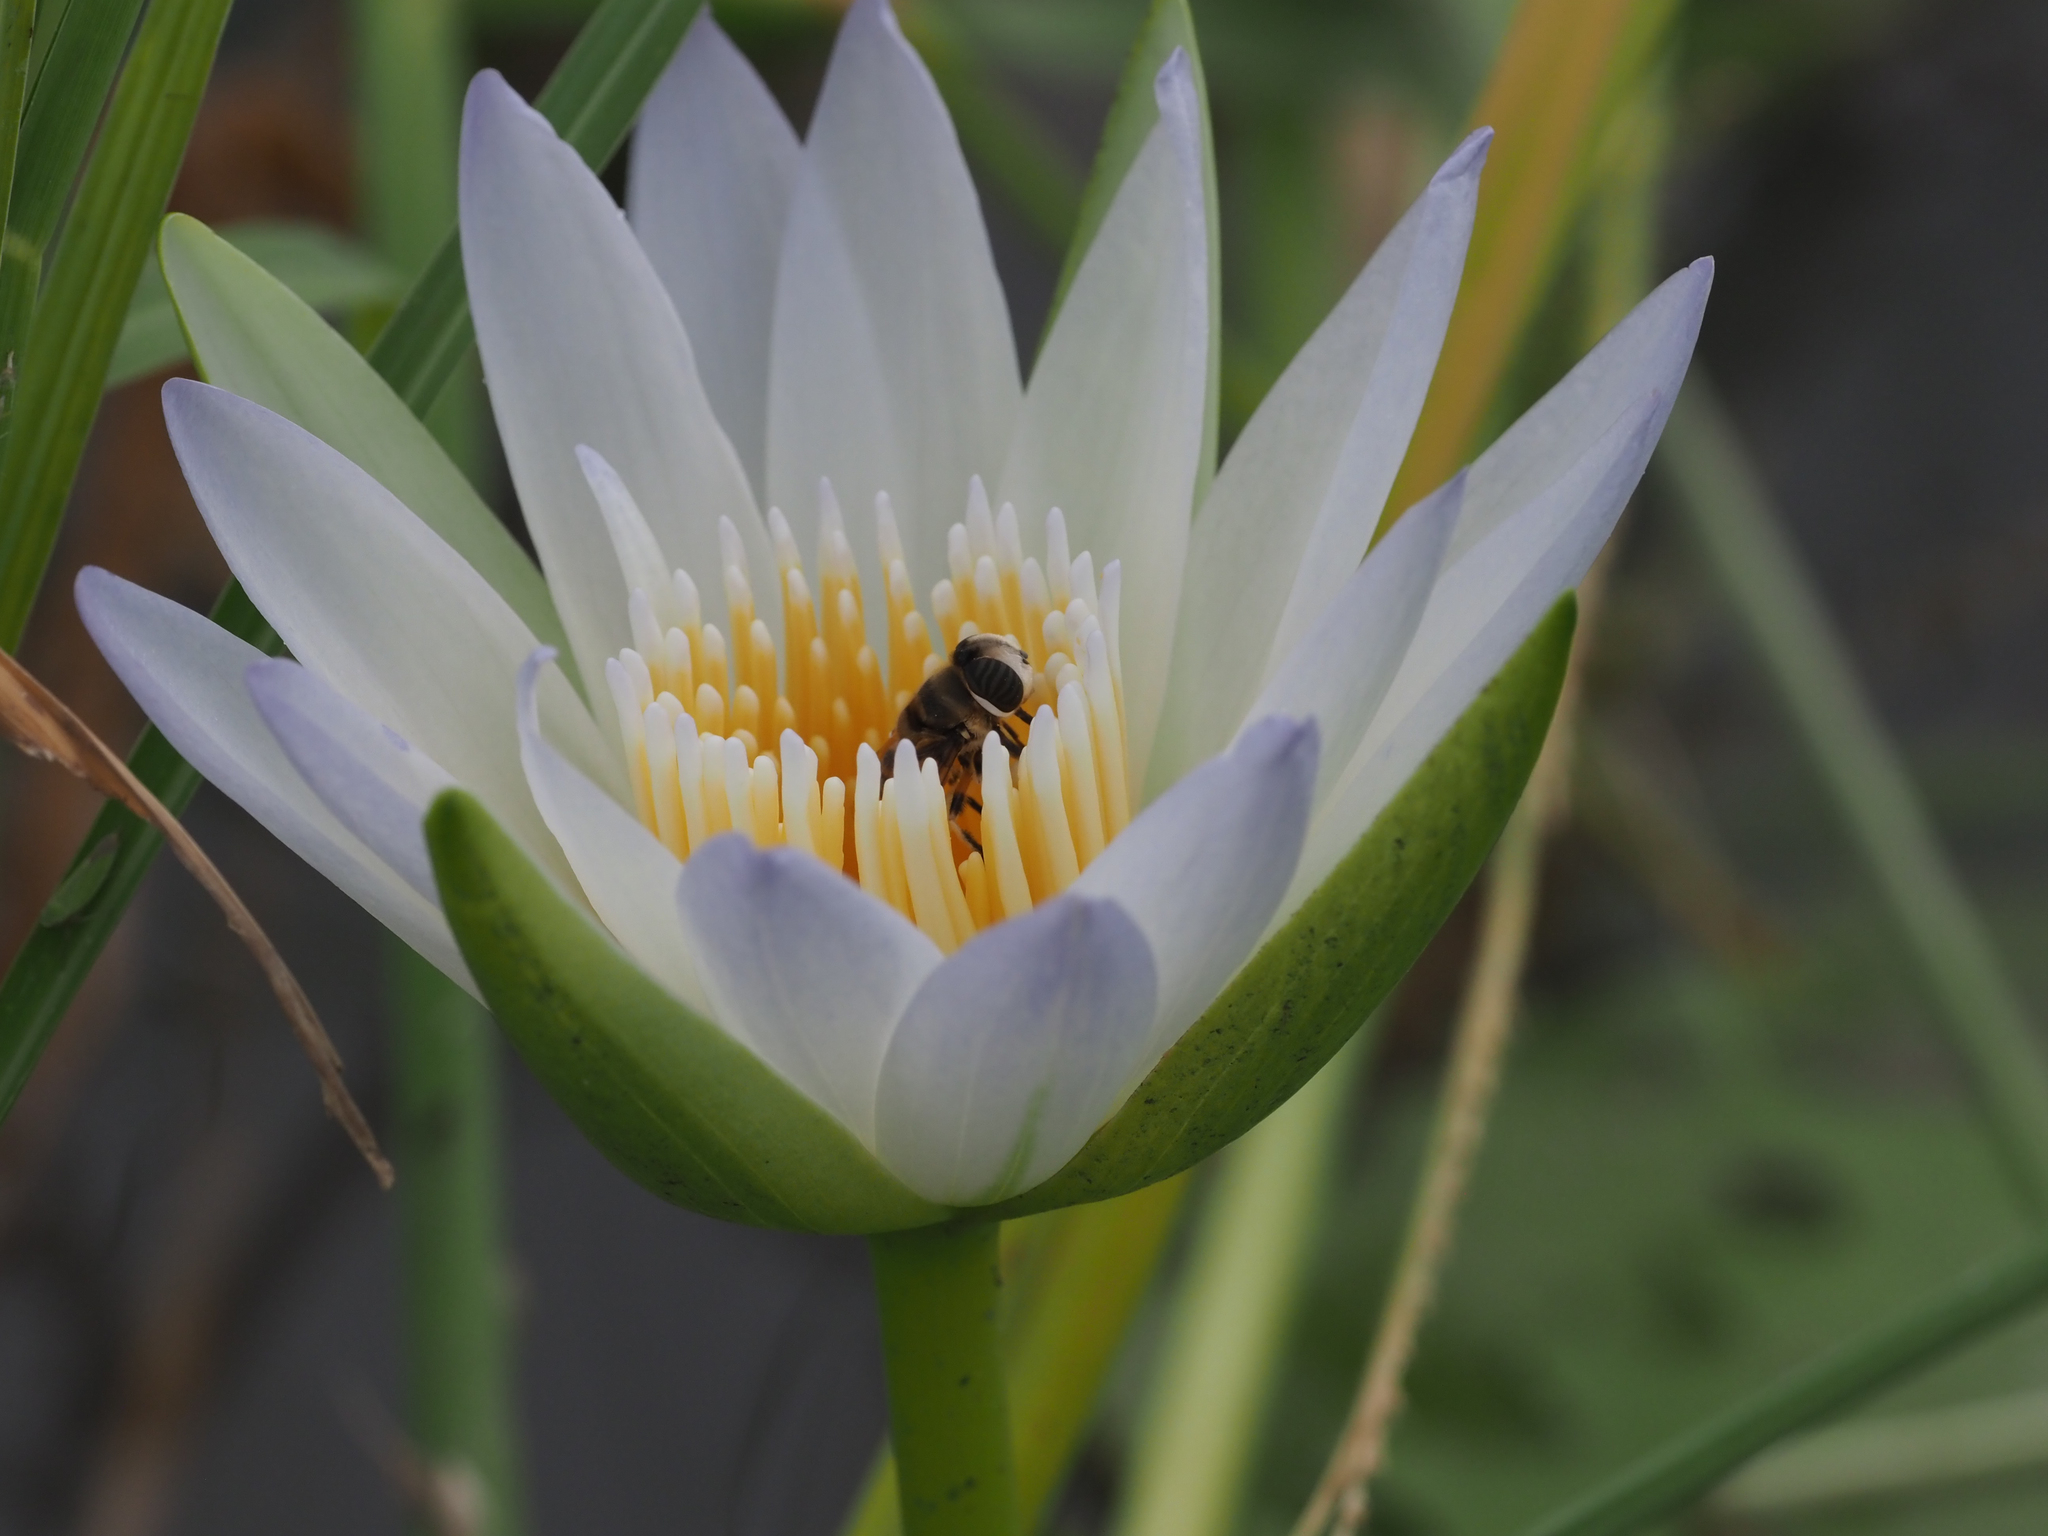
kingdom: Plantae
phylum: Tracheophyta
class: Magnoliopsida
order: Nymphaeales
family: Nymphaeaceae
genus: Nymphaea
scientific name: Nymphaea nouchali
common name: Blue lotus
